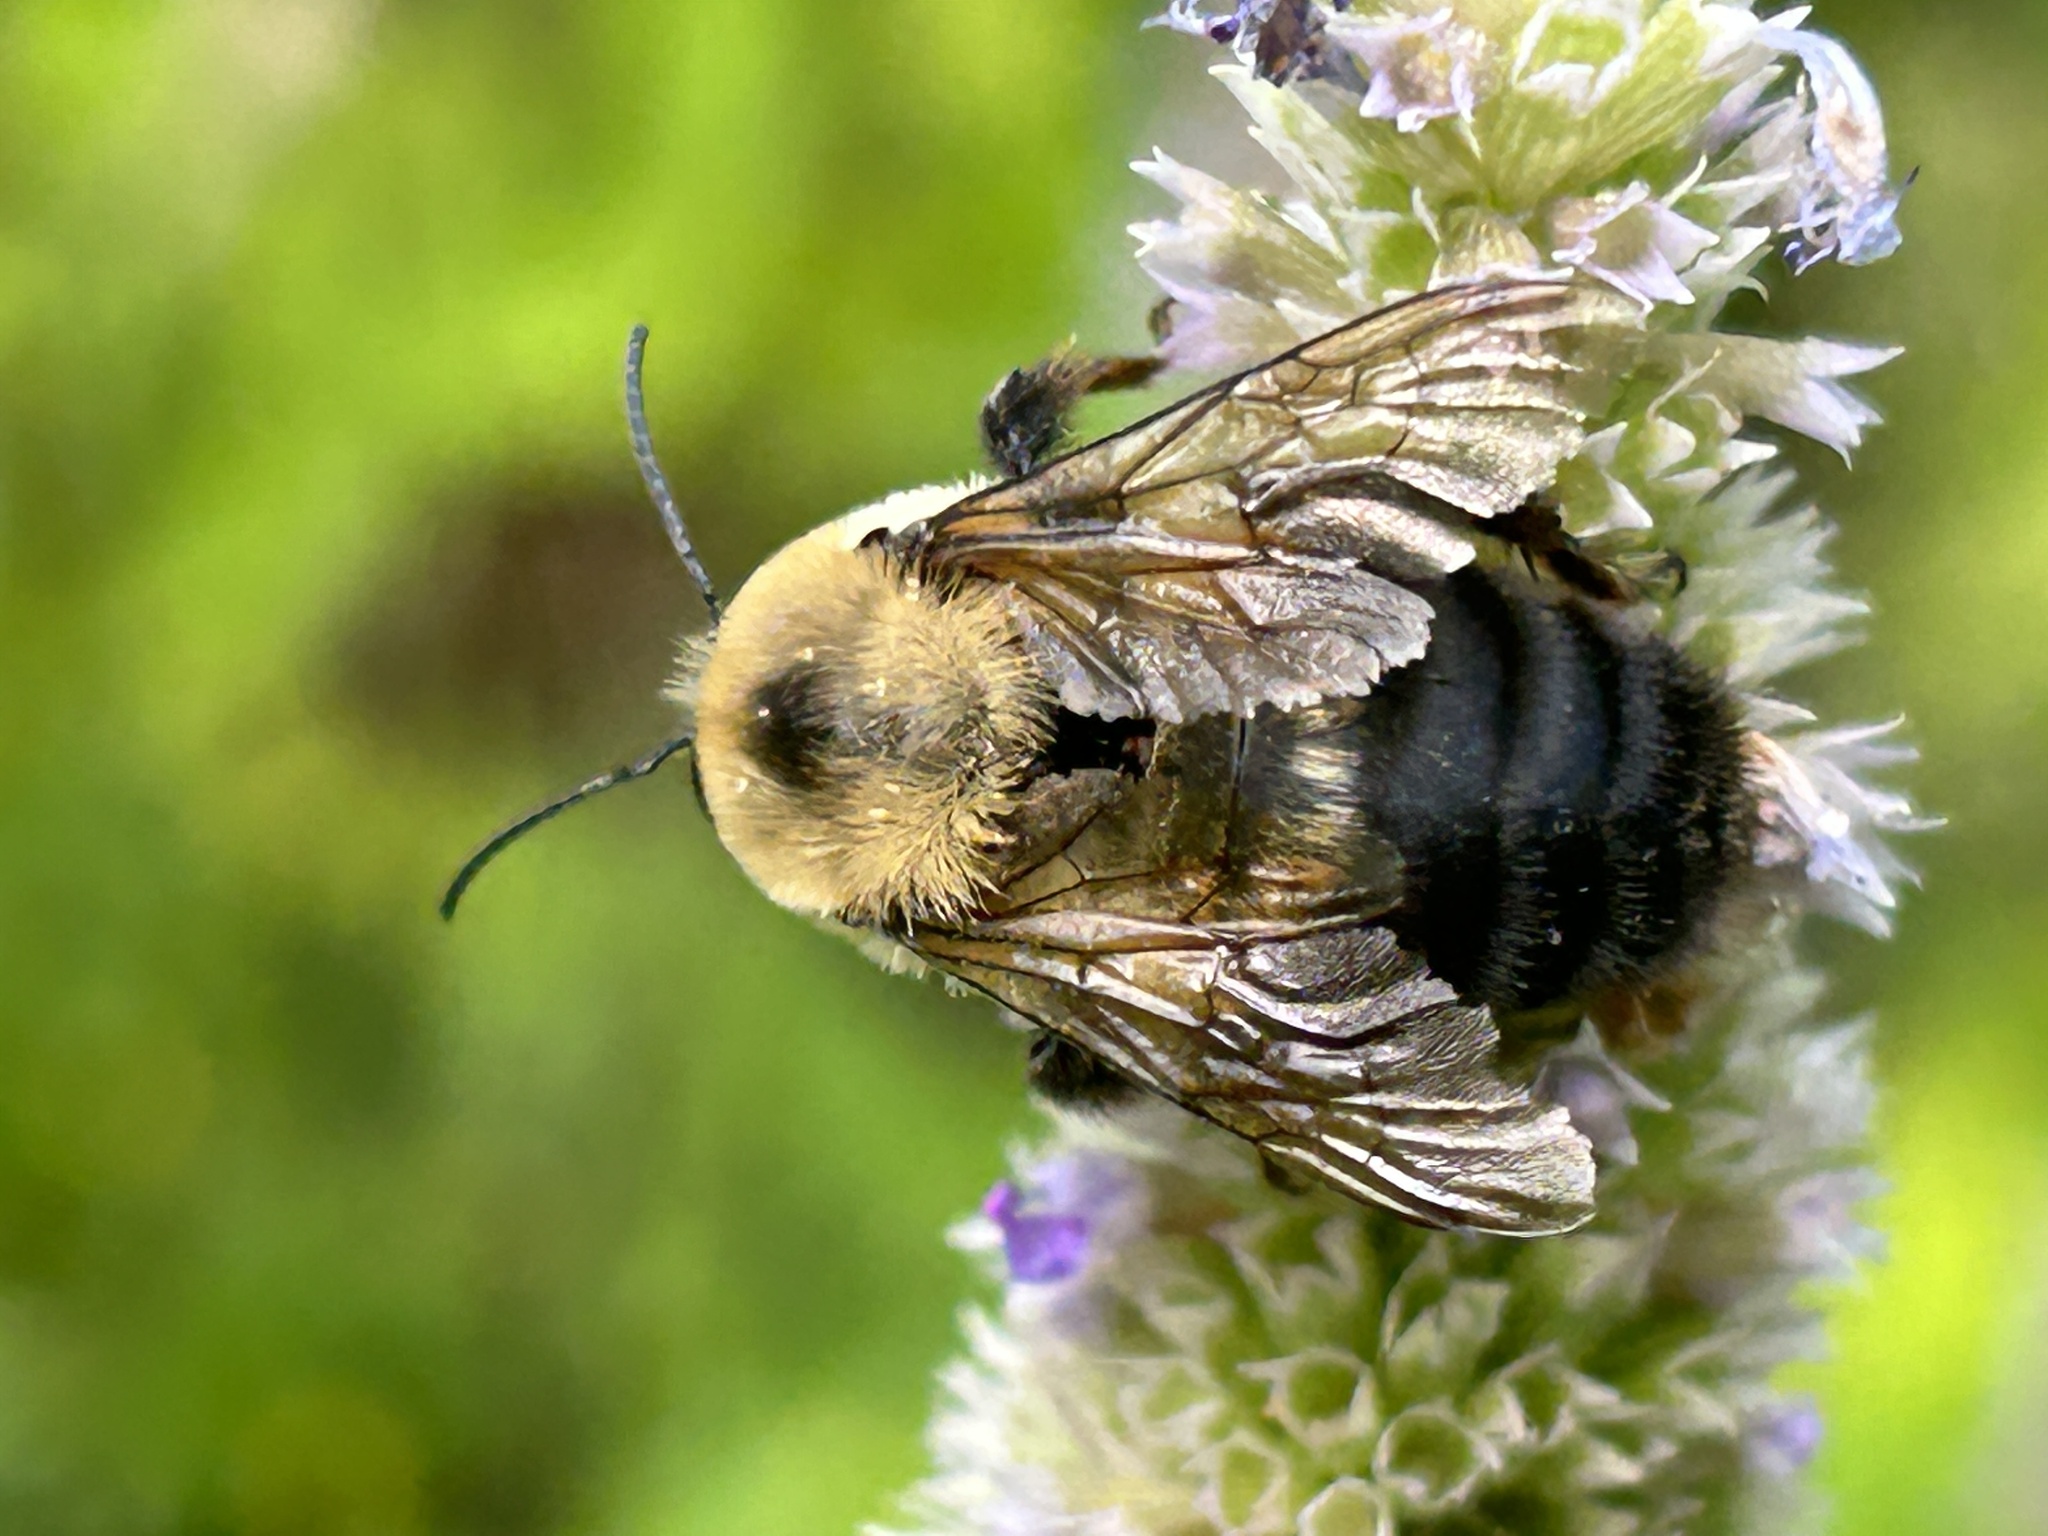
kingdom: Animalia
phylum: Arthropoda
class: Insecta
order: Hymenoptera
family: Apidae
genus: Bombus
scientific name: Bombus griseocollis
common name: Brown-belted bumble bee
